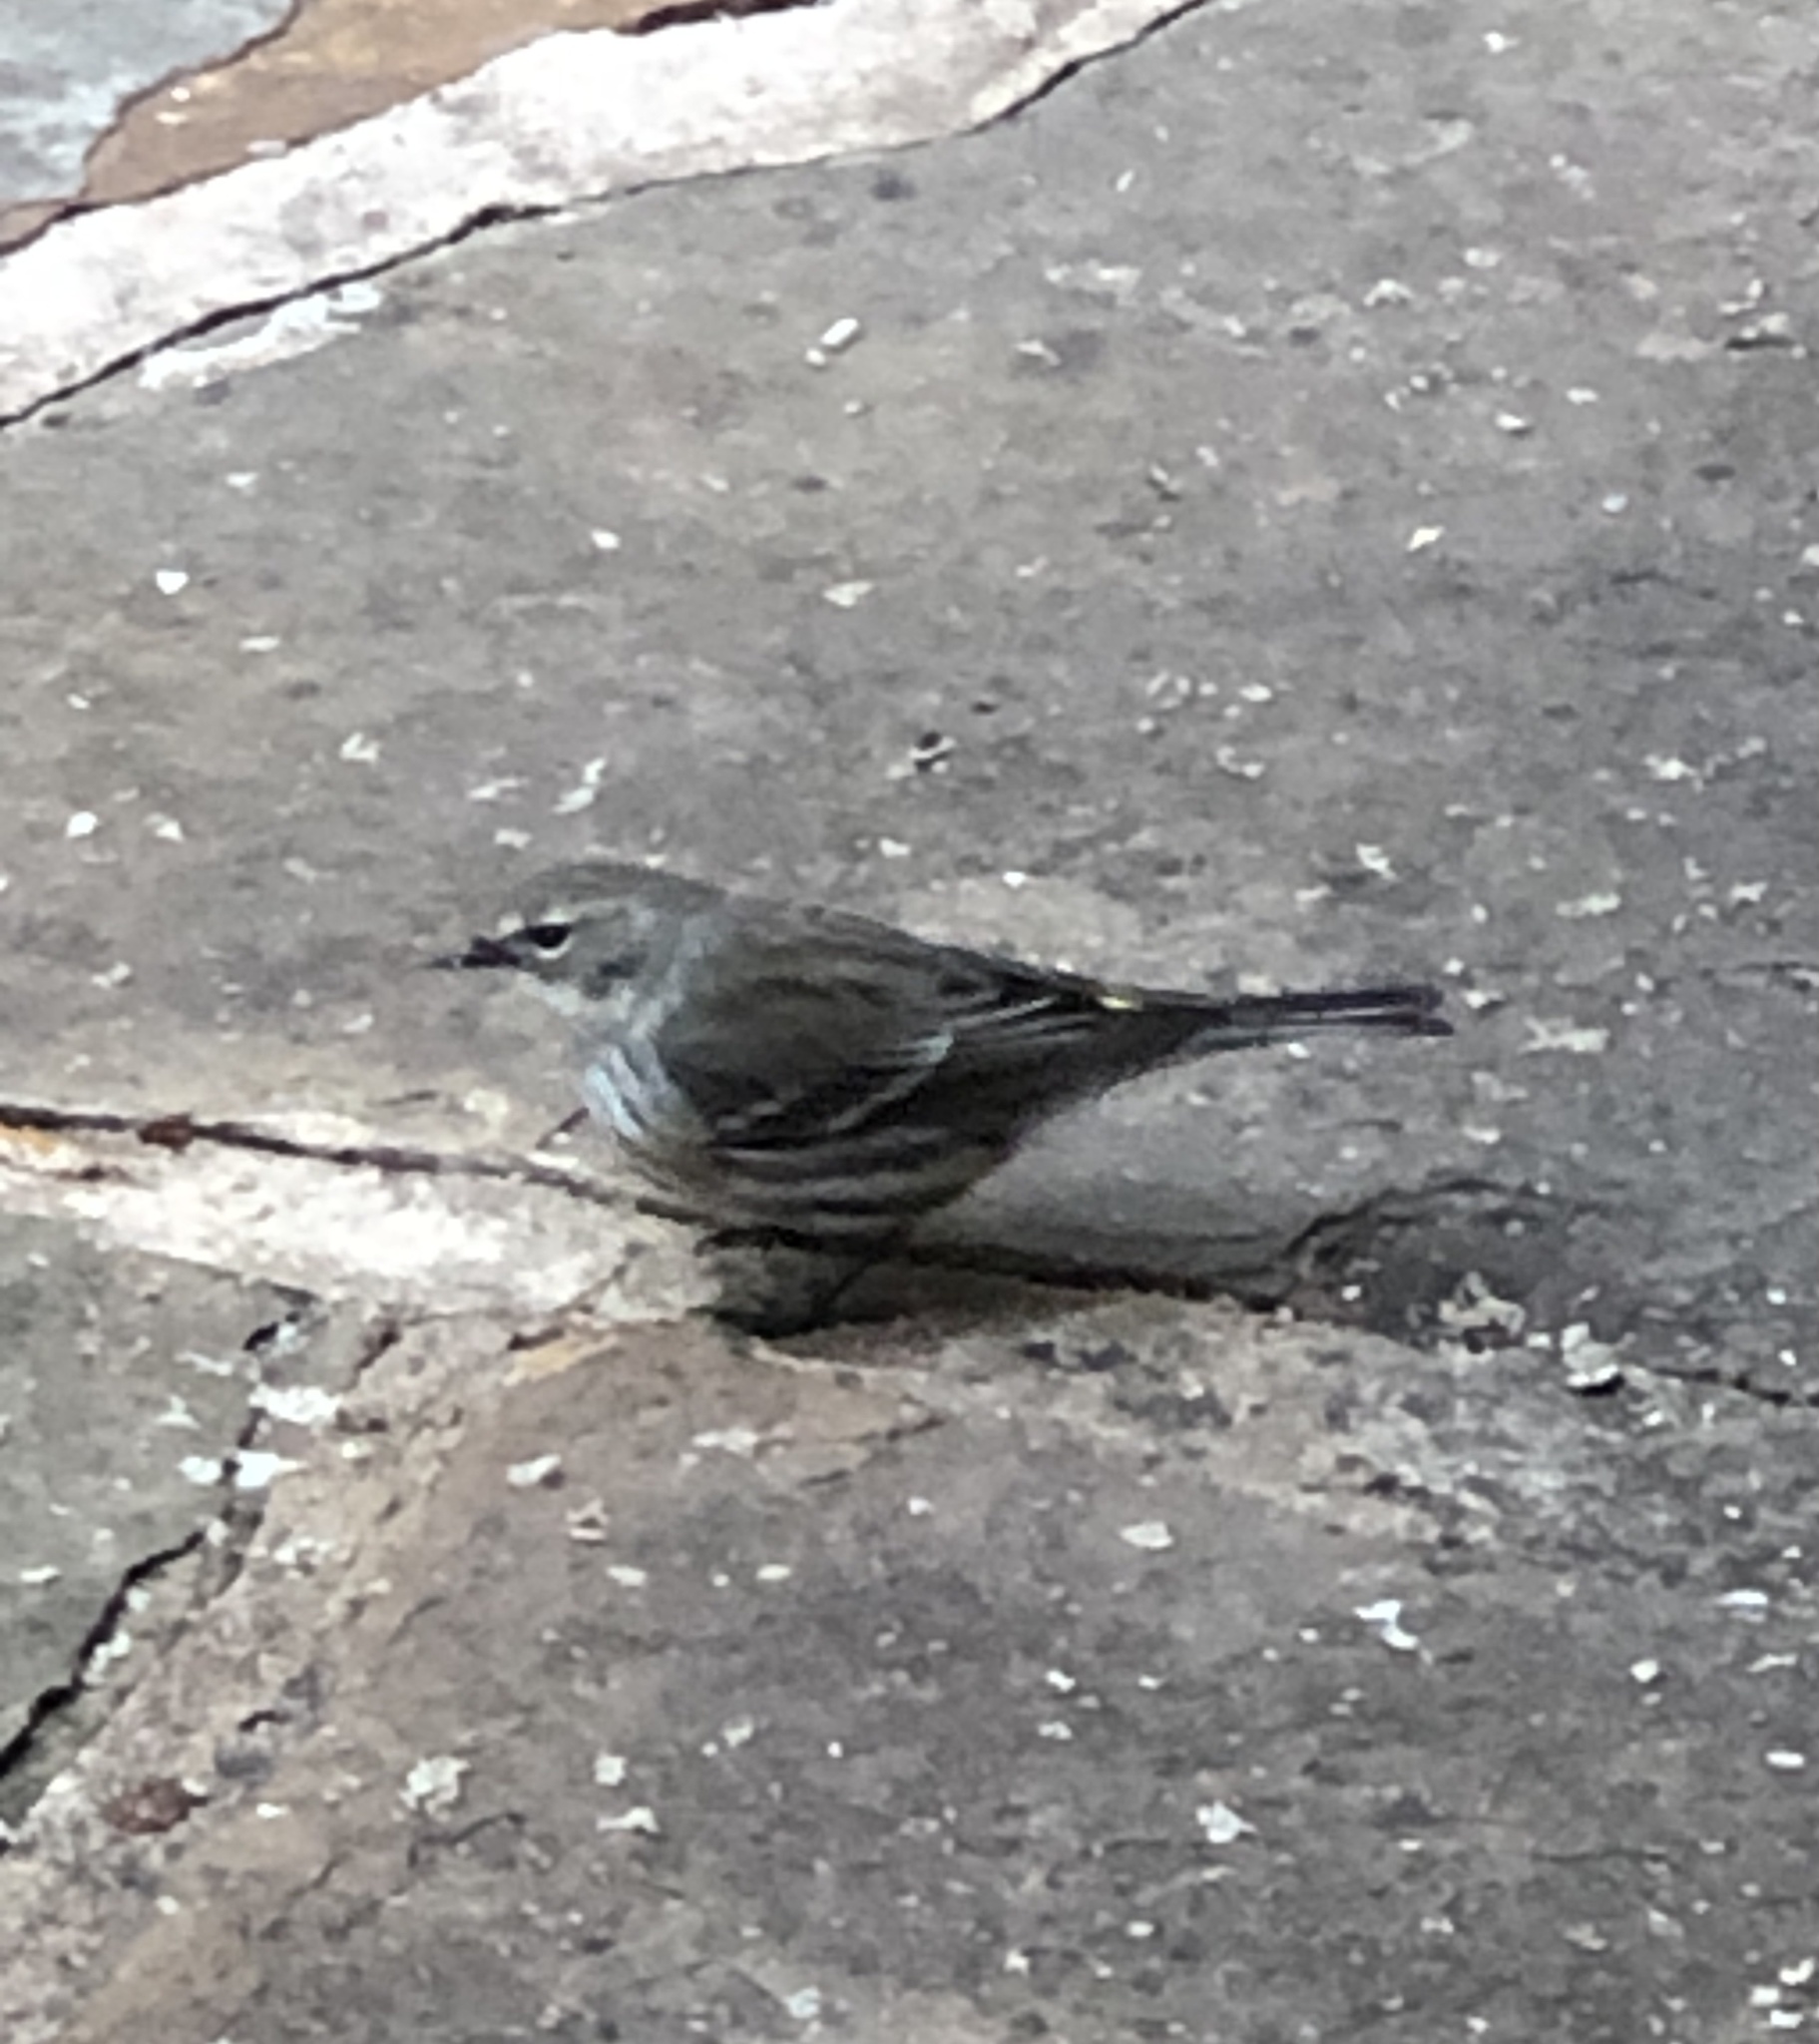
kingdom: Animalia
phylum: Chordata
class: Aves
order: Passeriformes
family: Parulidae
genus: Setophaga
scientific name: Setophaga coronata
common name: Myrtle warbler
